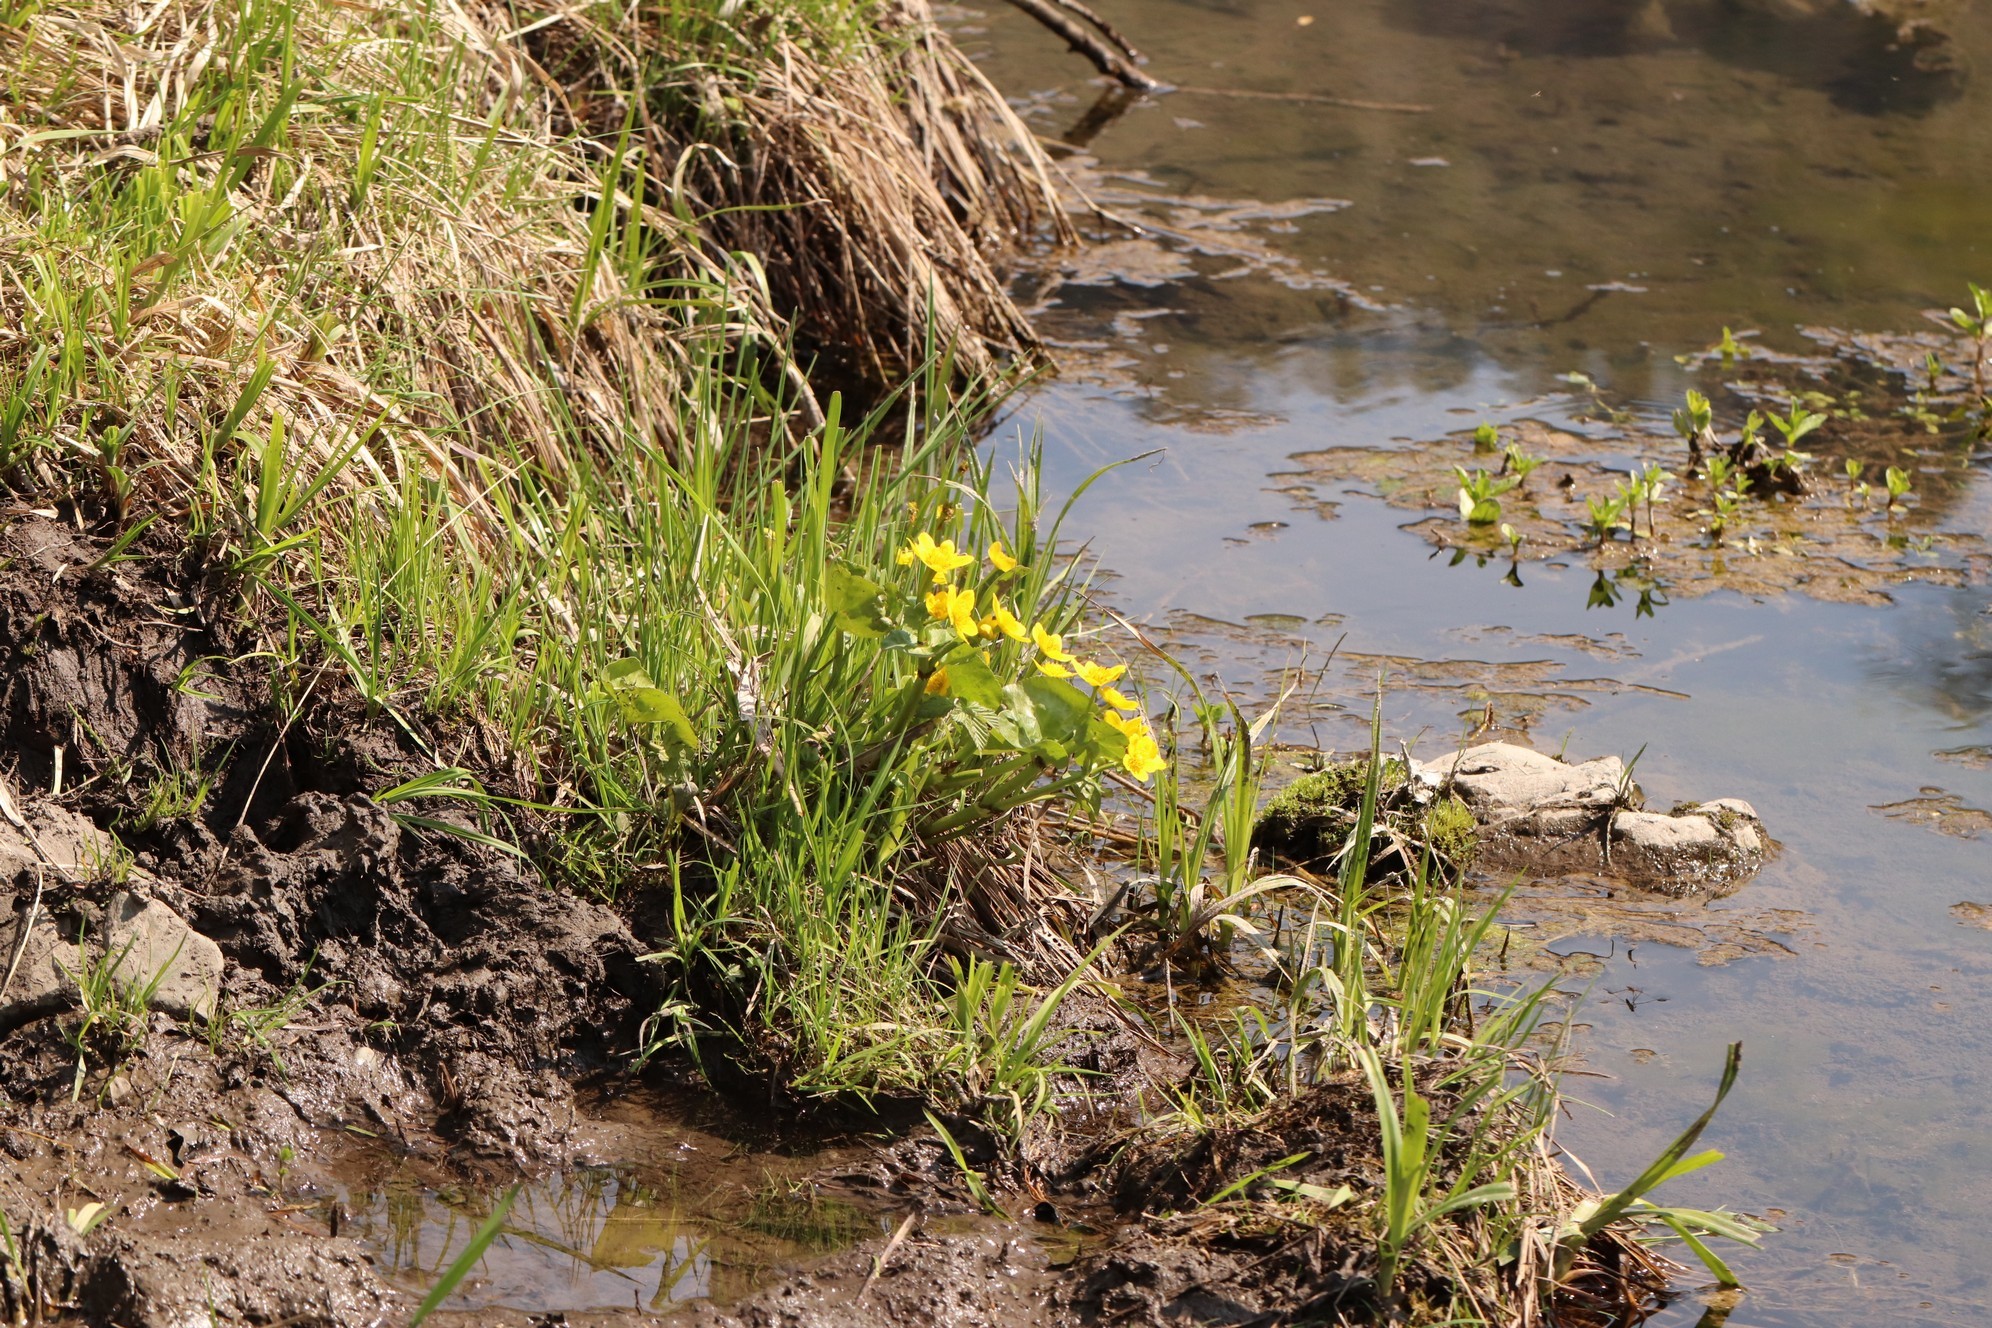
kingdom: Plantae
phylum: Tracheophyta
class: Magnoliopsida
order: Ranunculales
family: Ranunculaceae
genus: Caltha
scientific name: Caltha palustris
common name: Marsh marigold
